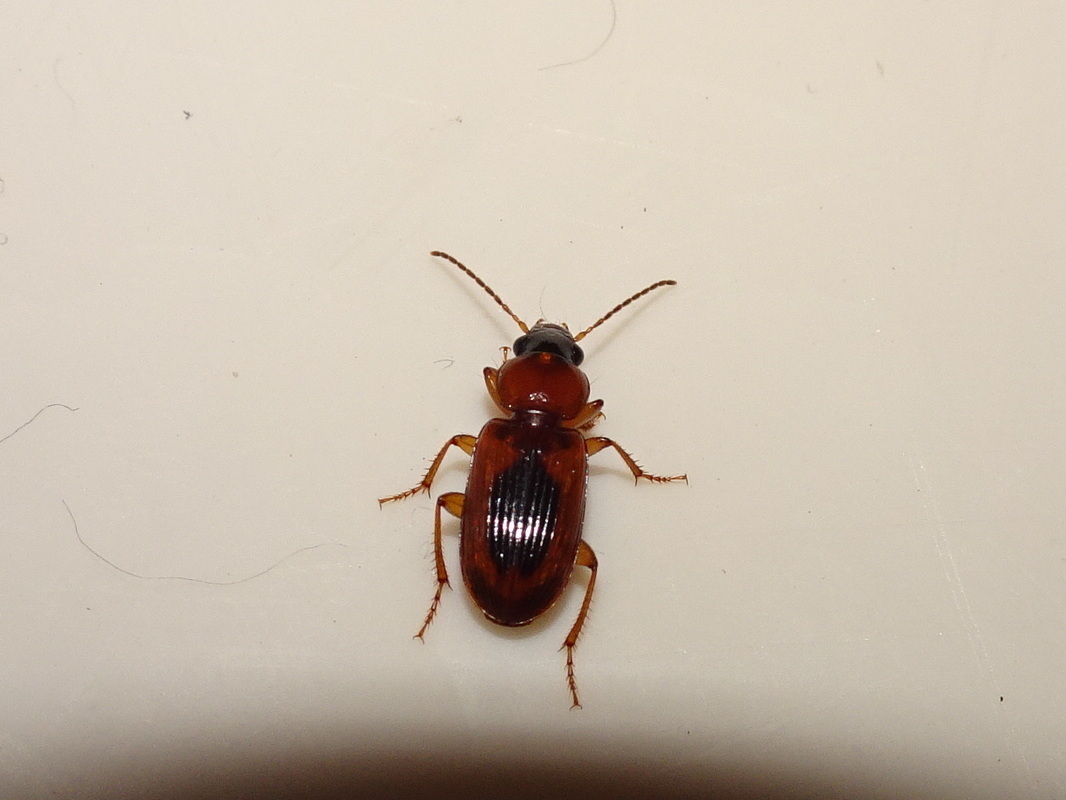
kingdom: Animalia
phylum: Arthropoda
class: Insecta
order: Coleoptera
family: Carabidae
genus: Stenolophus
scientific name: Stenolophus dissimilis
